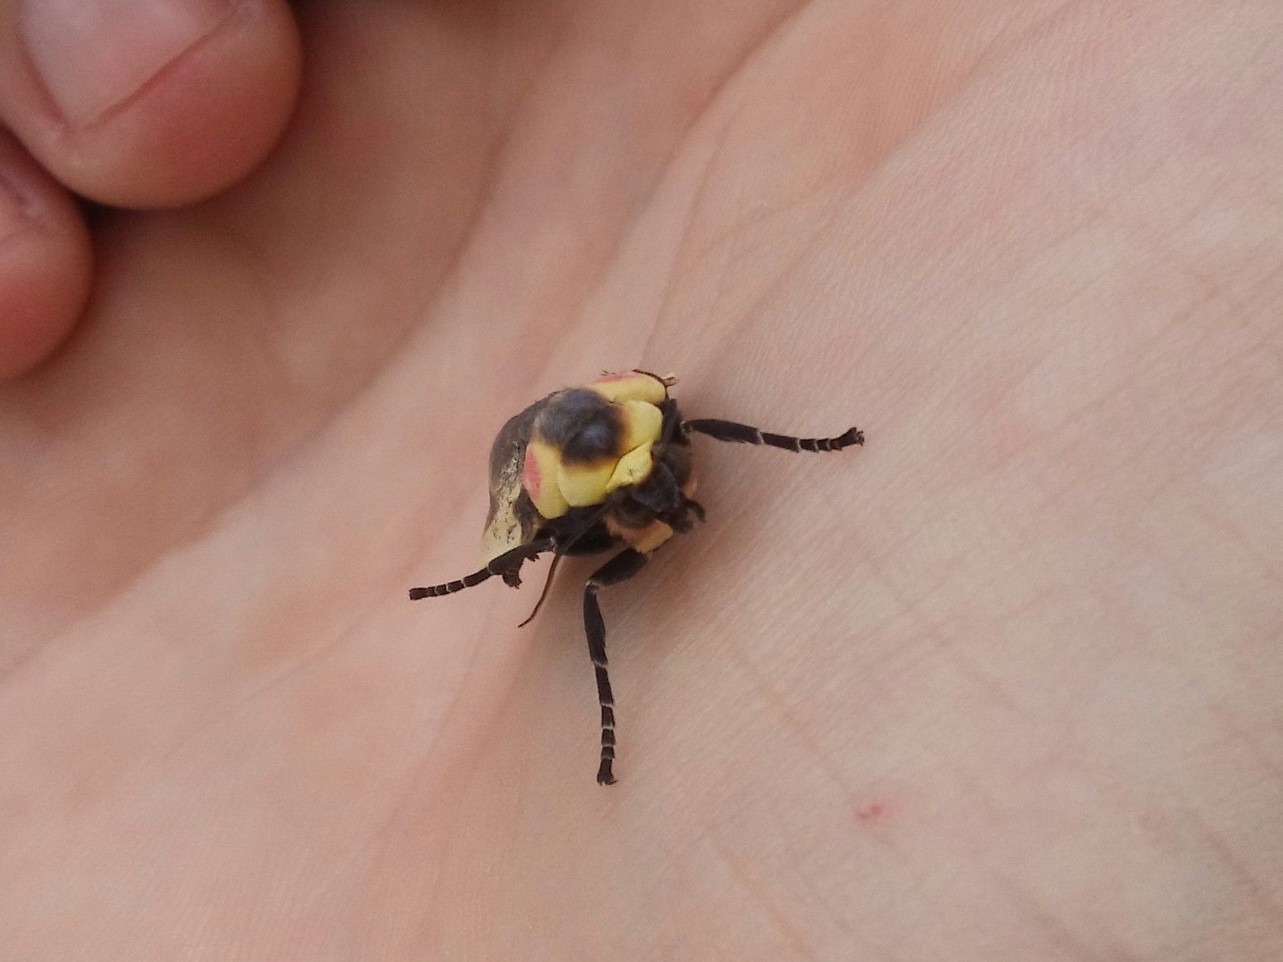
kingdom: Animalia
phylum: Arthropoda
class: Insecta
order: Lepidoptera
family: Erebidae
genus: Cratoplastis
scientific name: Cratoplastis diluta
